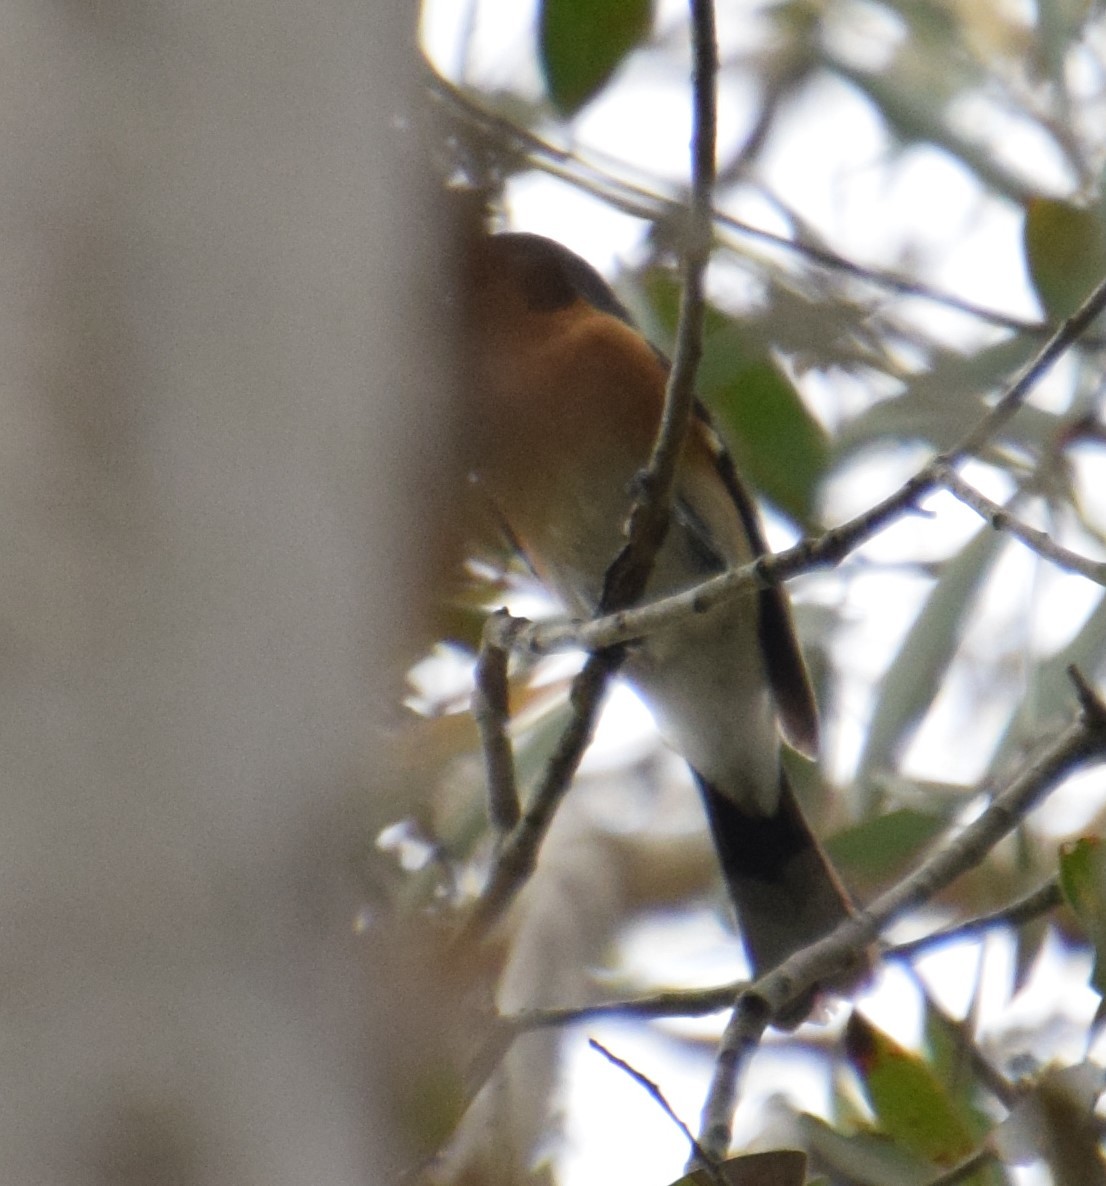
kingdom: Animalia
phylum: Chordata
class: Aves
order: Passeriformes
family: Monarchidae
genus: Symposiachrus
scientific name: Symposiachrus trivirgatus
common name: Spectacled monarch
